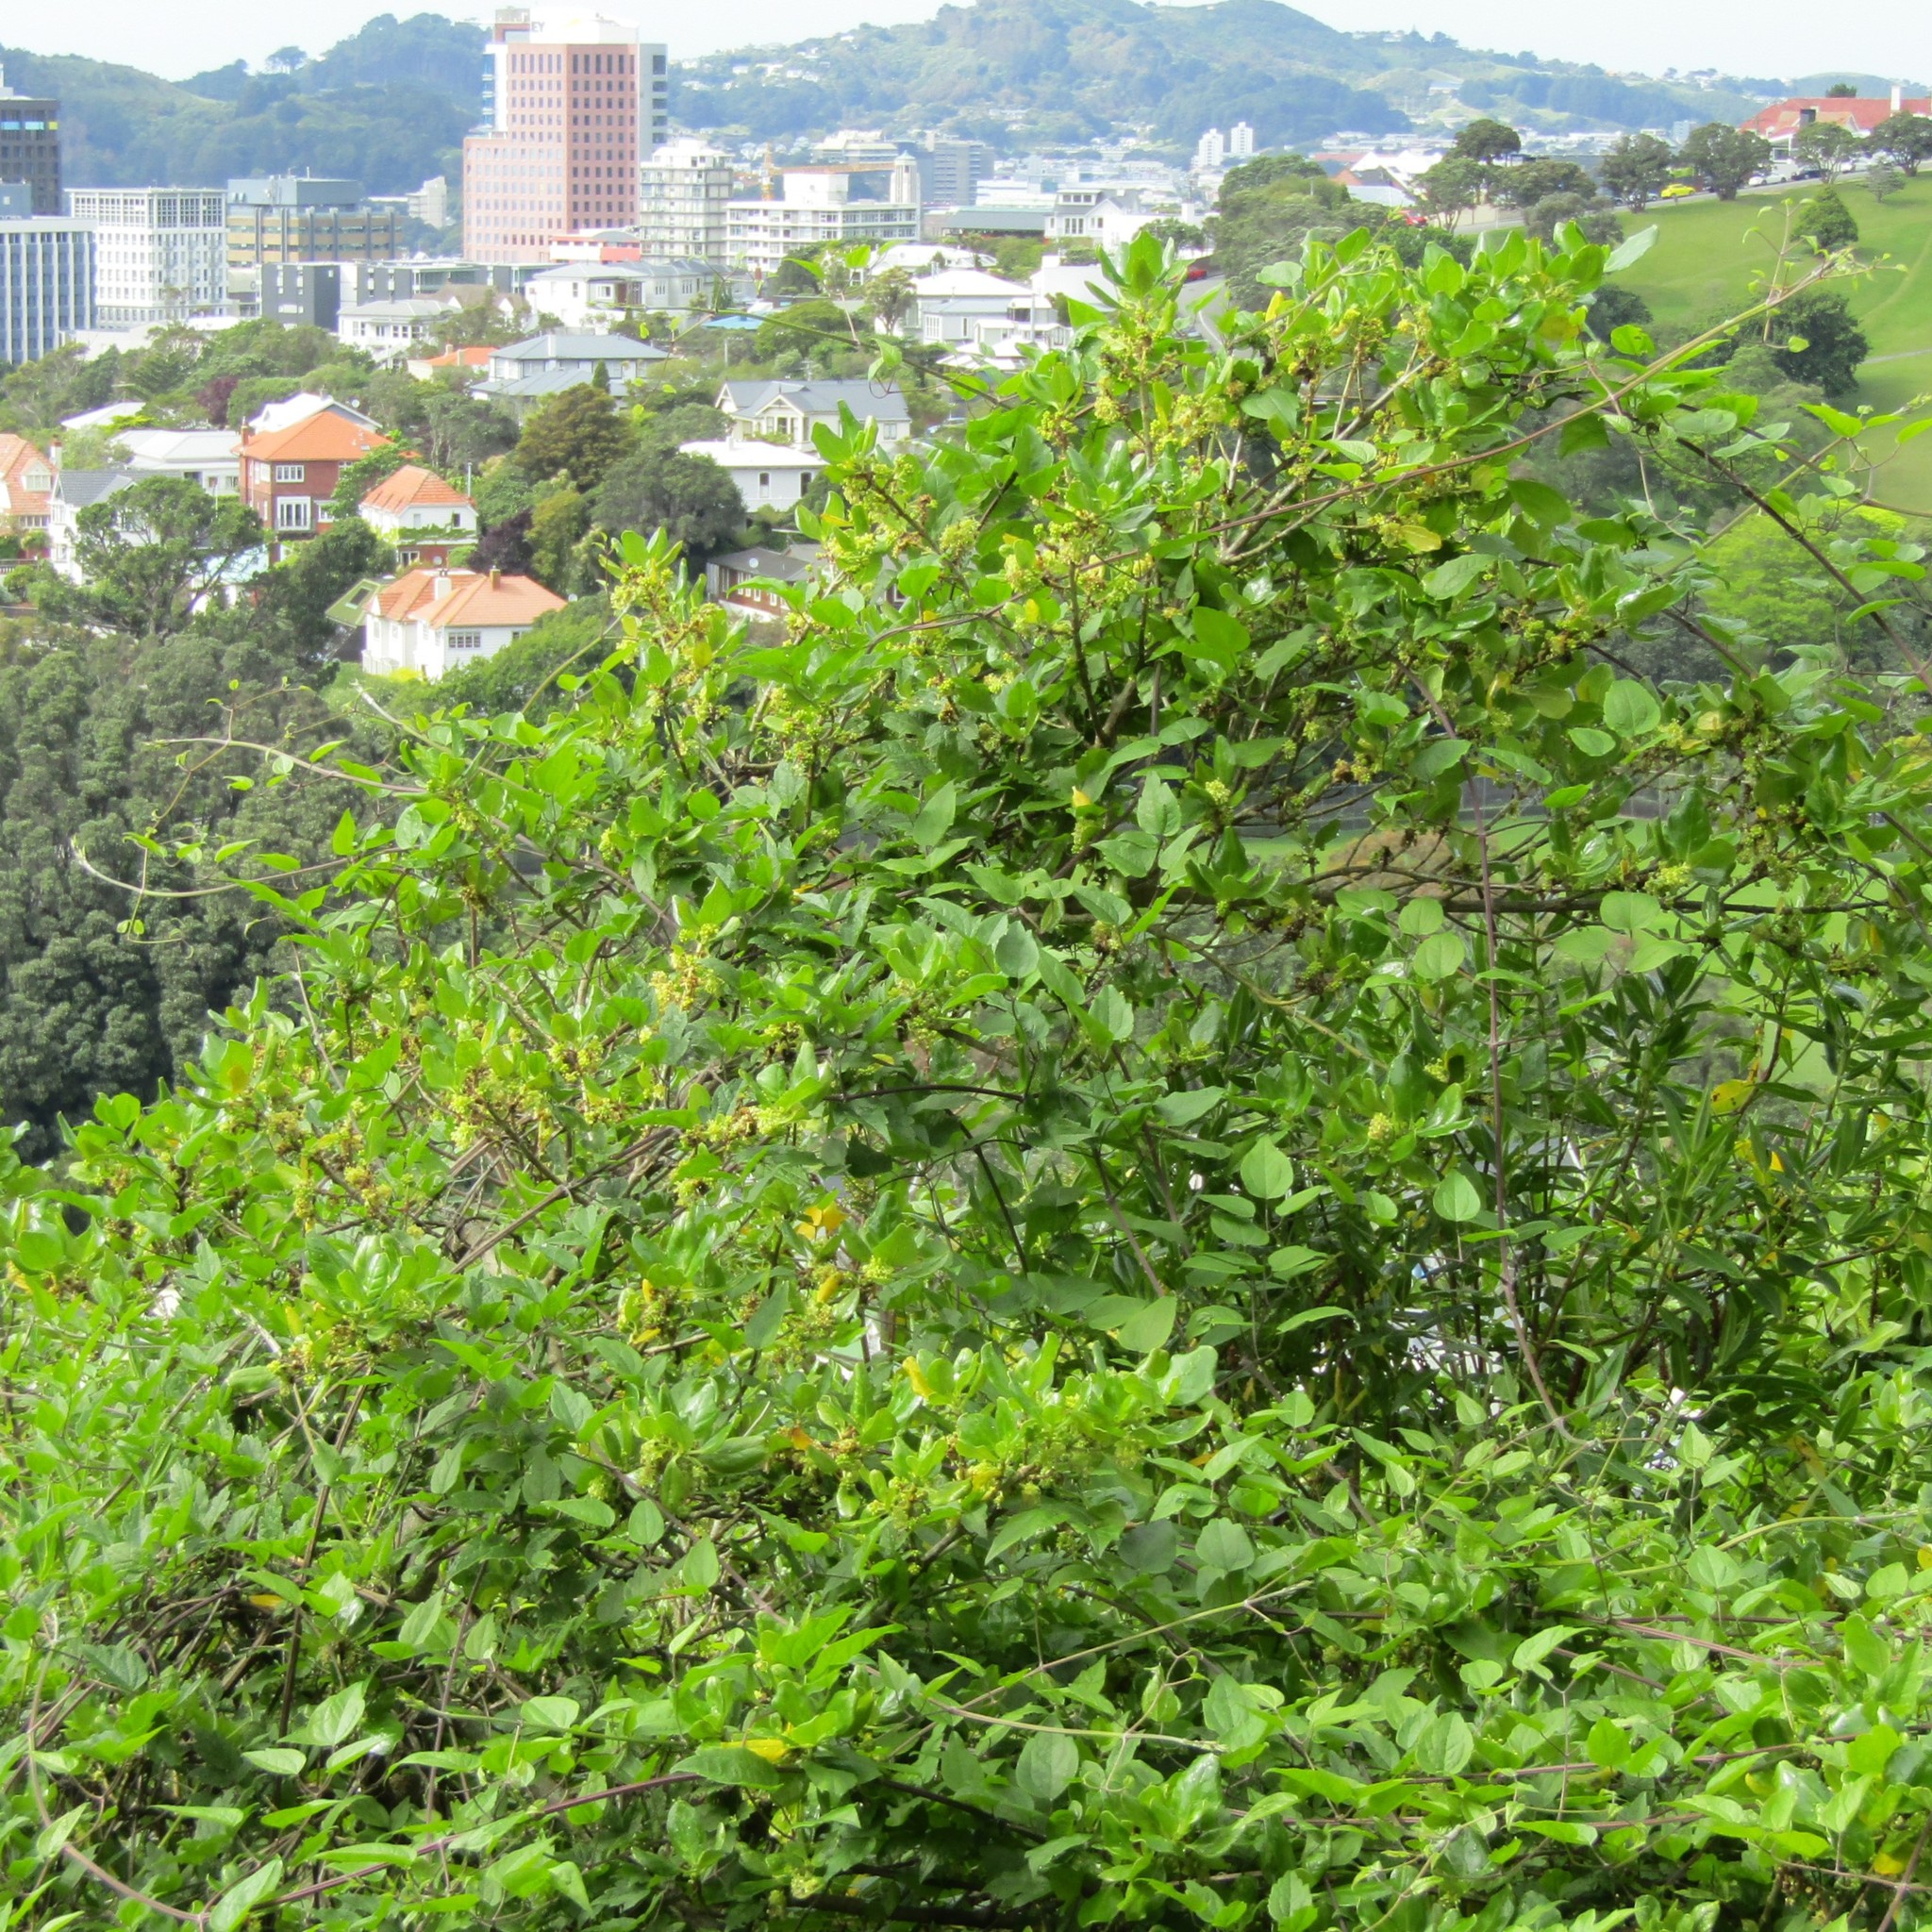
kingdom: Plantae
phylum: Tracheophyta
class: Magnoliopsida
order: Gentianales
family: Rubiaceae
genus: Coprosma
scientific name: Coprosma repens
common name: Tree bedstraw
